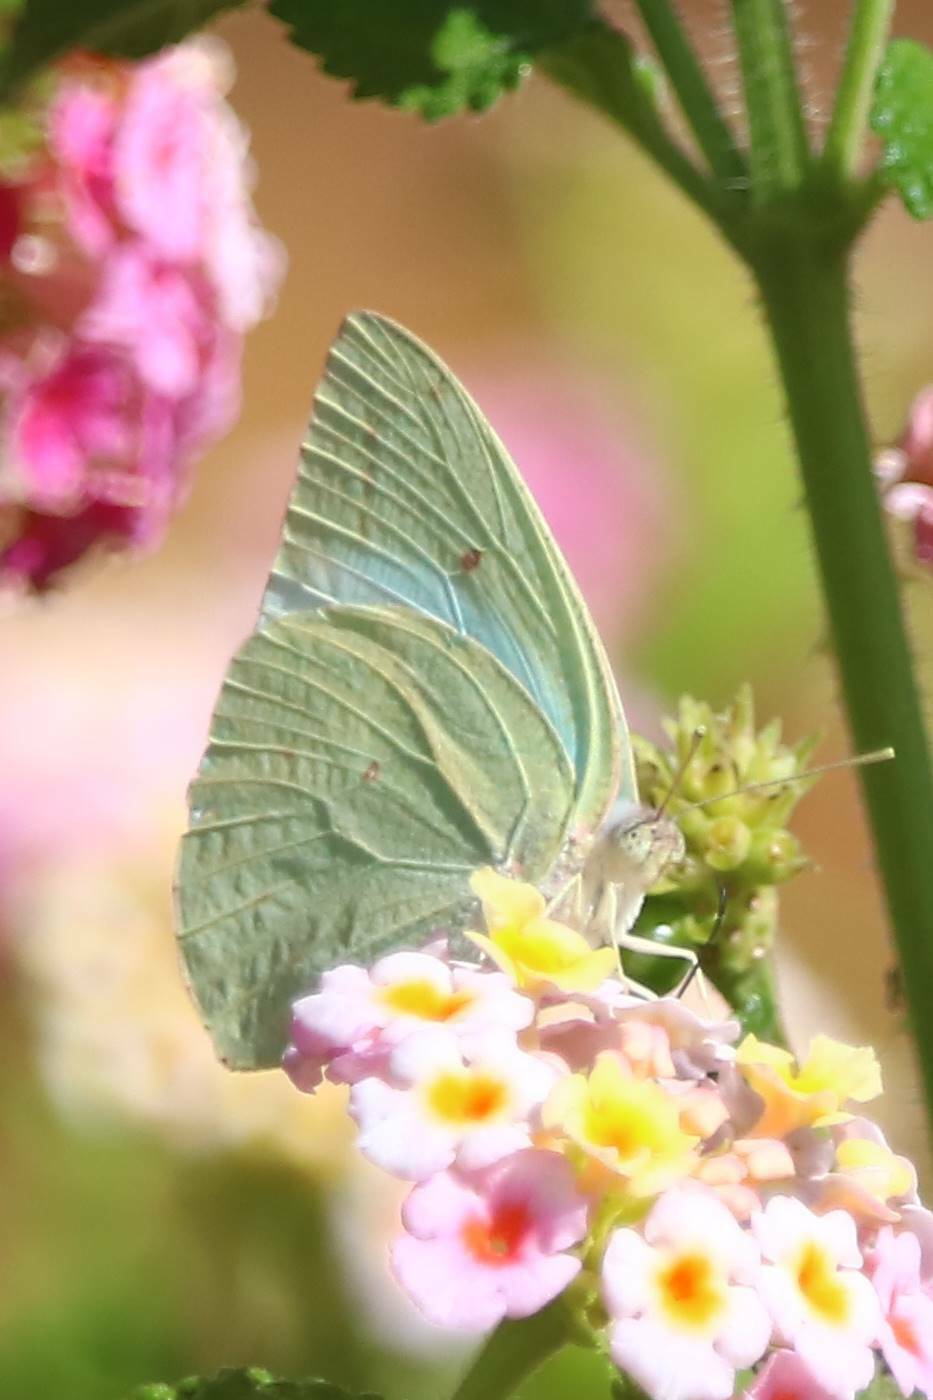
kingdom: Animalia
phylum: Arthropoda
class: Insecta
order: Lepidoptera
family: Pieridae
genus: Catopsilia
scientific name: Catopsilia florella
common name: African migrant
